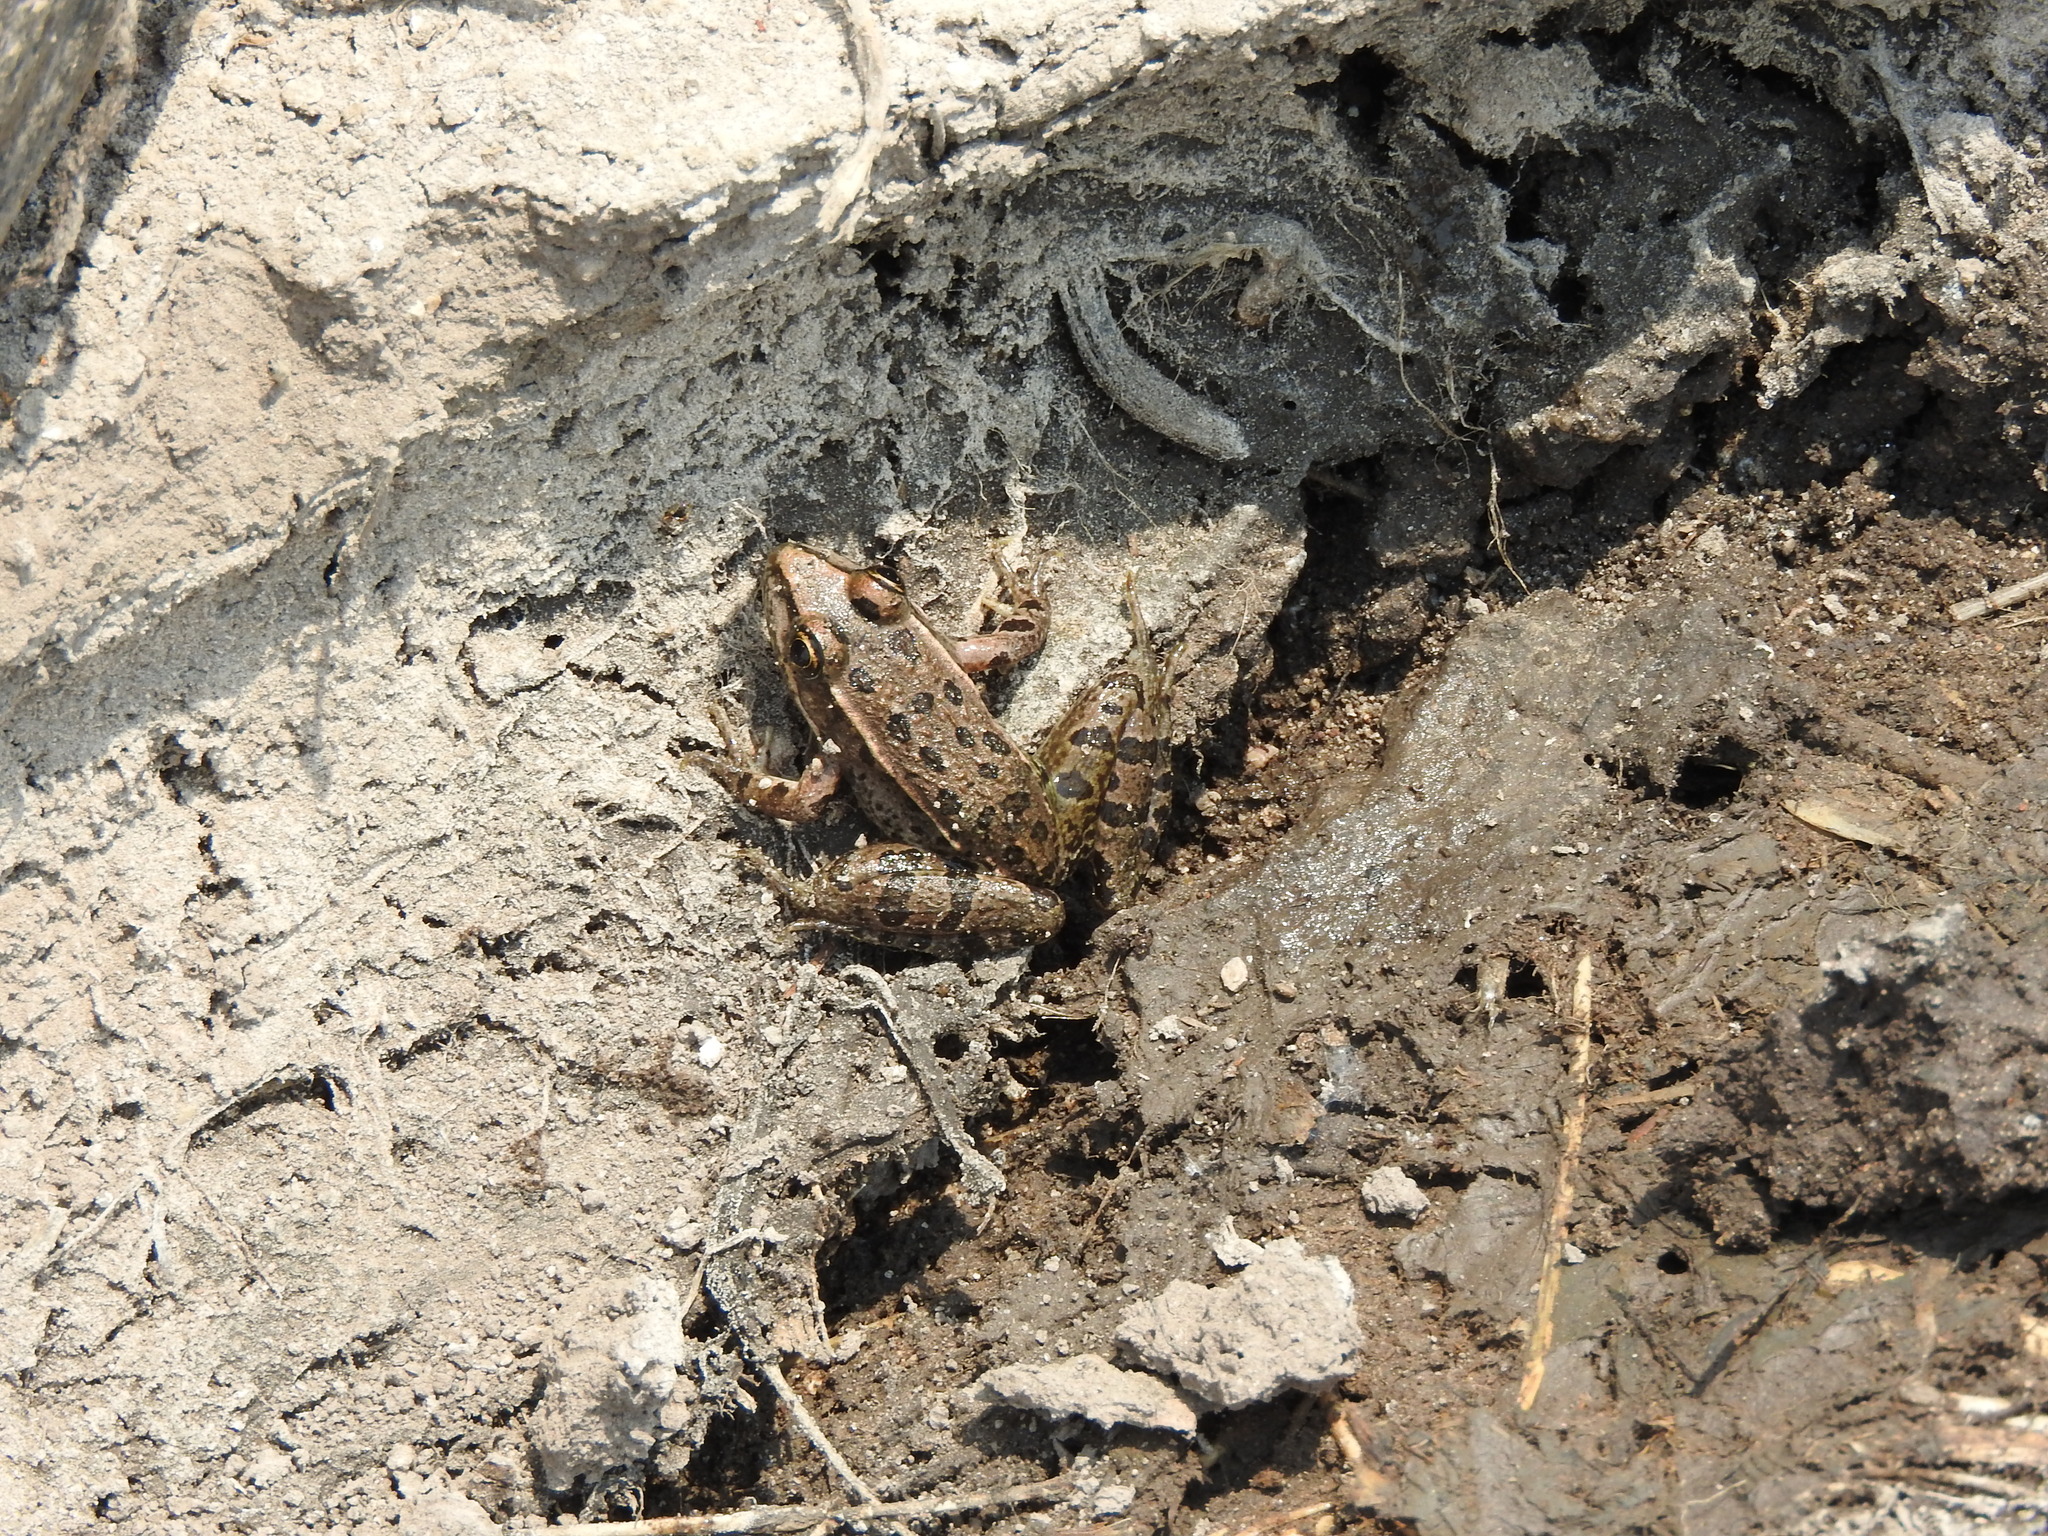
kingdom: Animalia
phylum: Chordata
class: Amphibia
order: Anura
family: Ranidae
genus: Lithobates
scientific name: Lithobates neovolcanicus
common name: Transverse volcanic leopard frog
